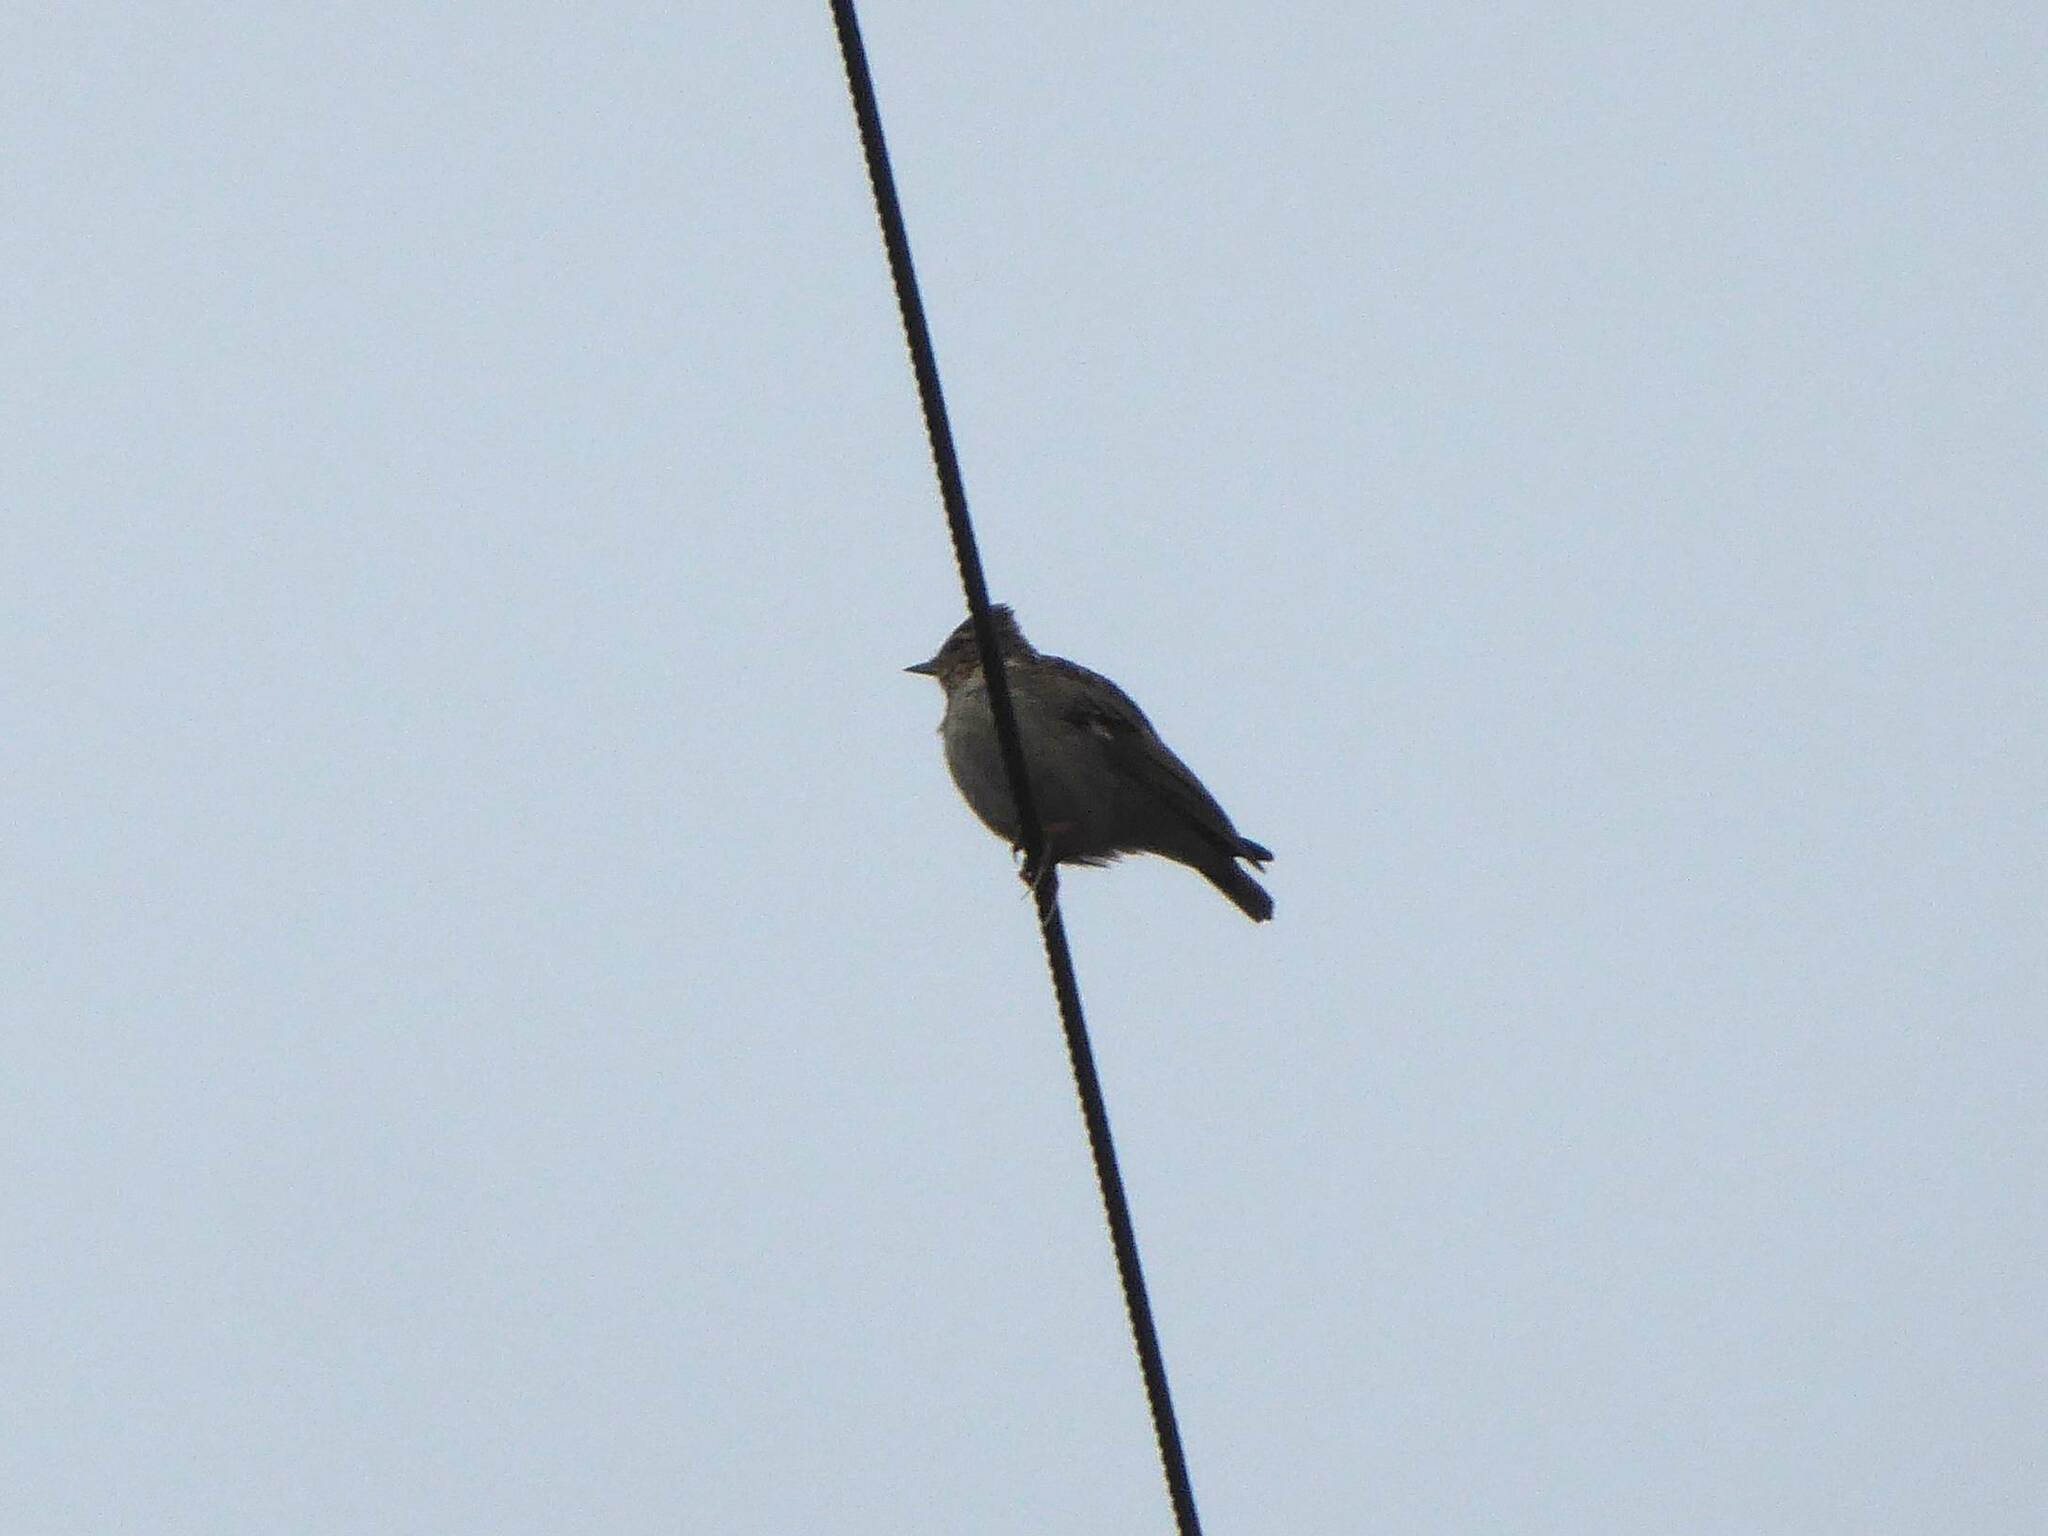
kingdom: Animalia
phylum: Chordata
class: Aves
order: Passeriformes
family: Alaudidae
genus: Lullula
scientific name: Lullula arborea
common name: Woodlark
